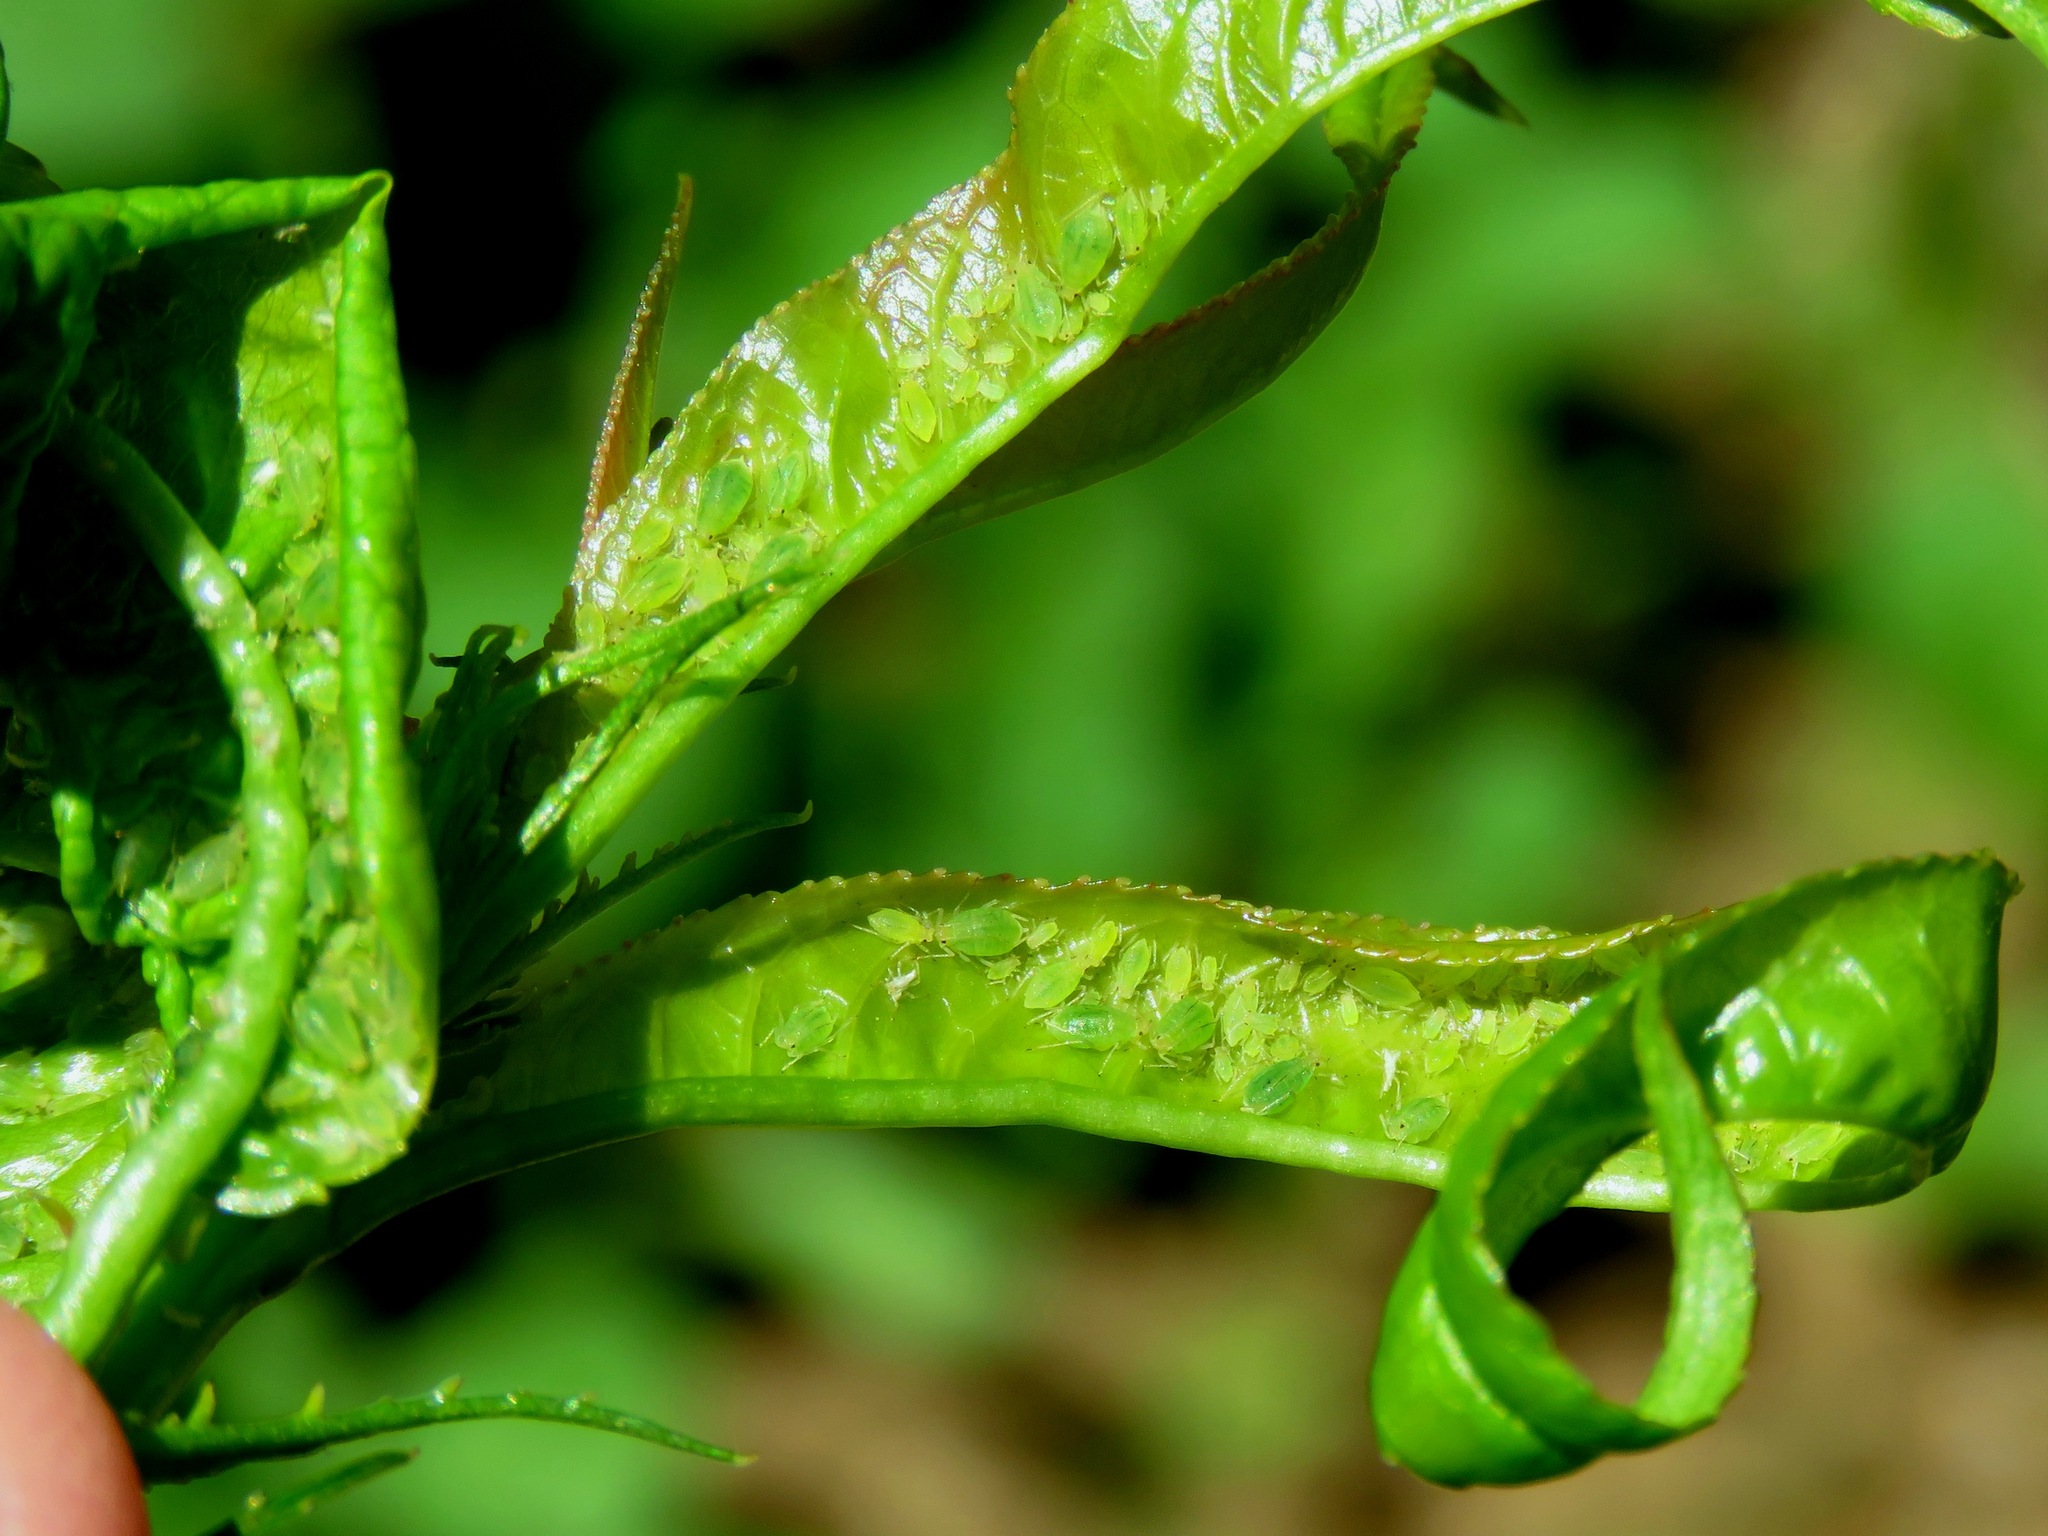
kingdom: Animalia
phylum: Arthropoda
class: Insecta
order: Hemiptera
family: Aphididae
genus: Myzus
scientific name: Myzus persicae
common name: Green peach aphid
